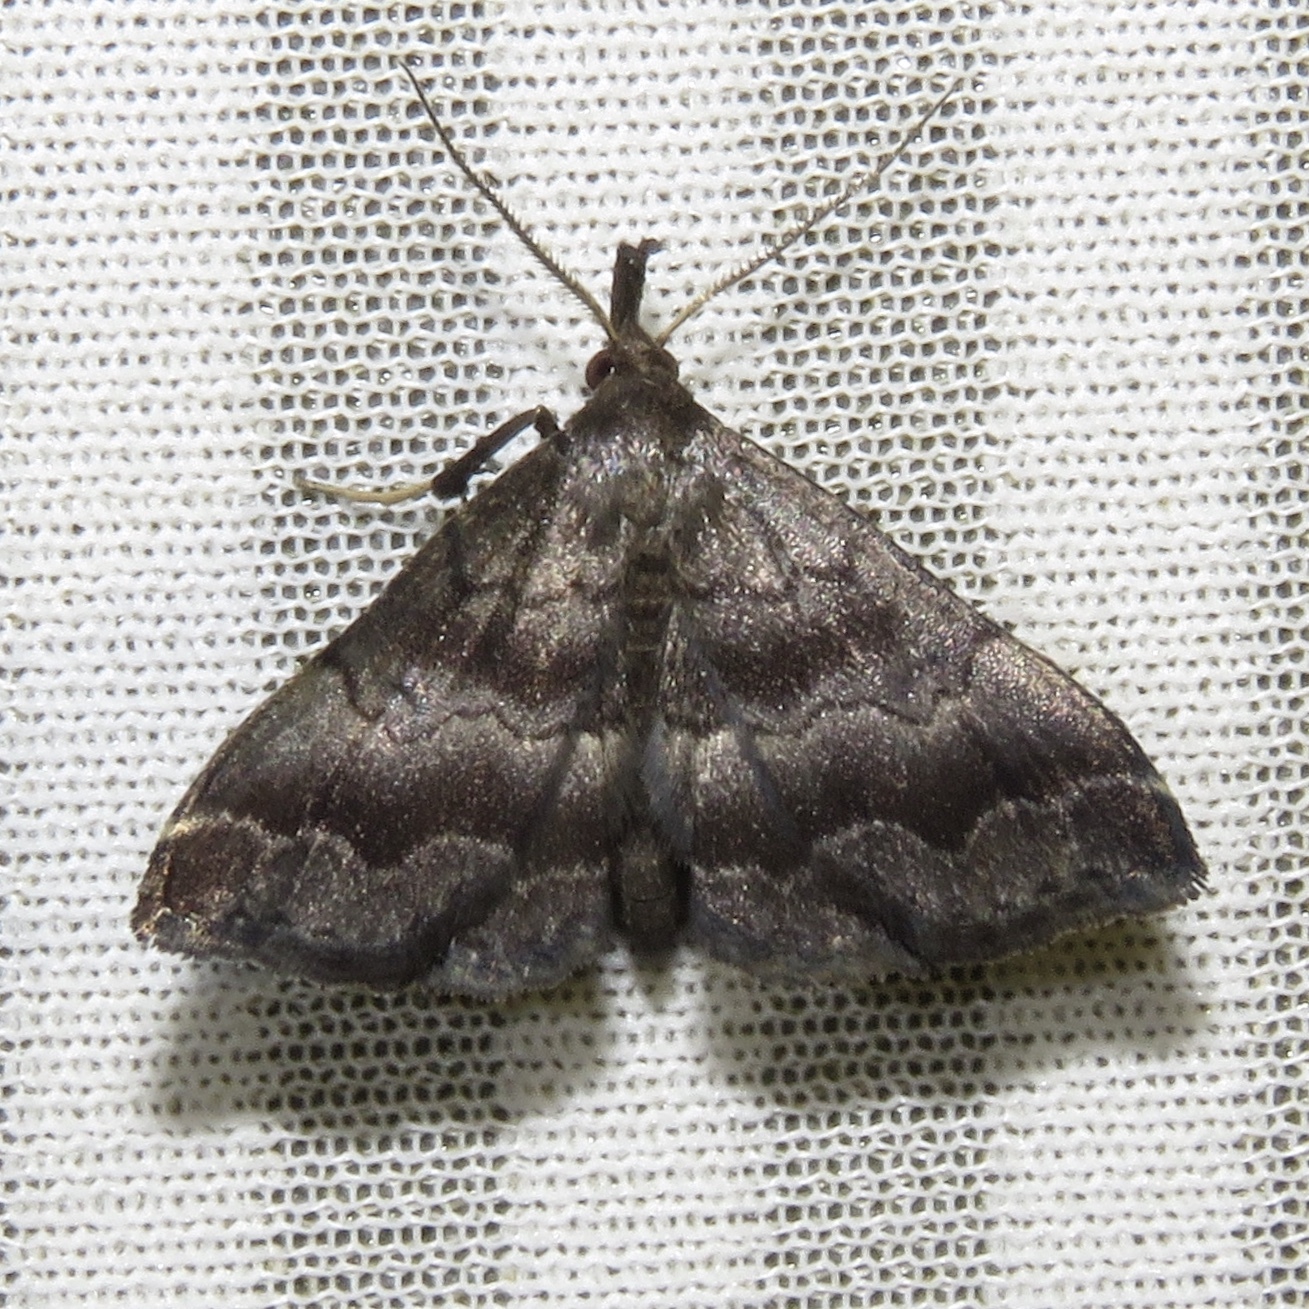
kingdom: Animalia
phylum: Arthropoda
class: Insecta
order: Lepidoptera
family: Erebidae
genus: Phalaenostola
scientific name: Phalaenostola larentioides
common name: Black-banded owlet
